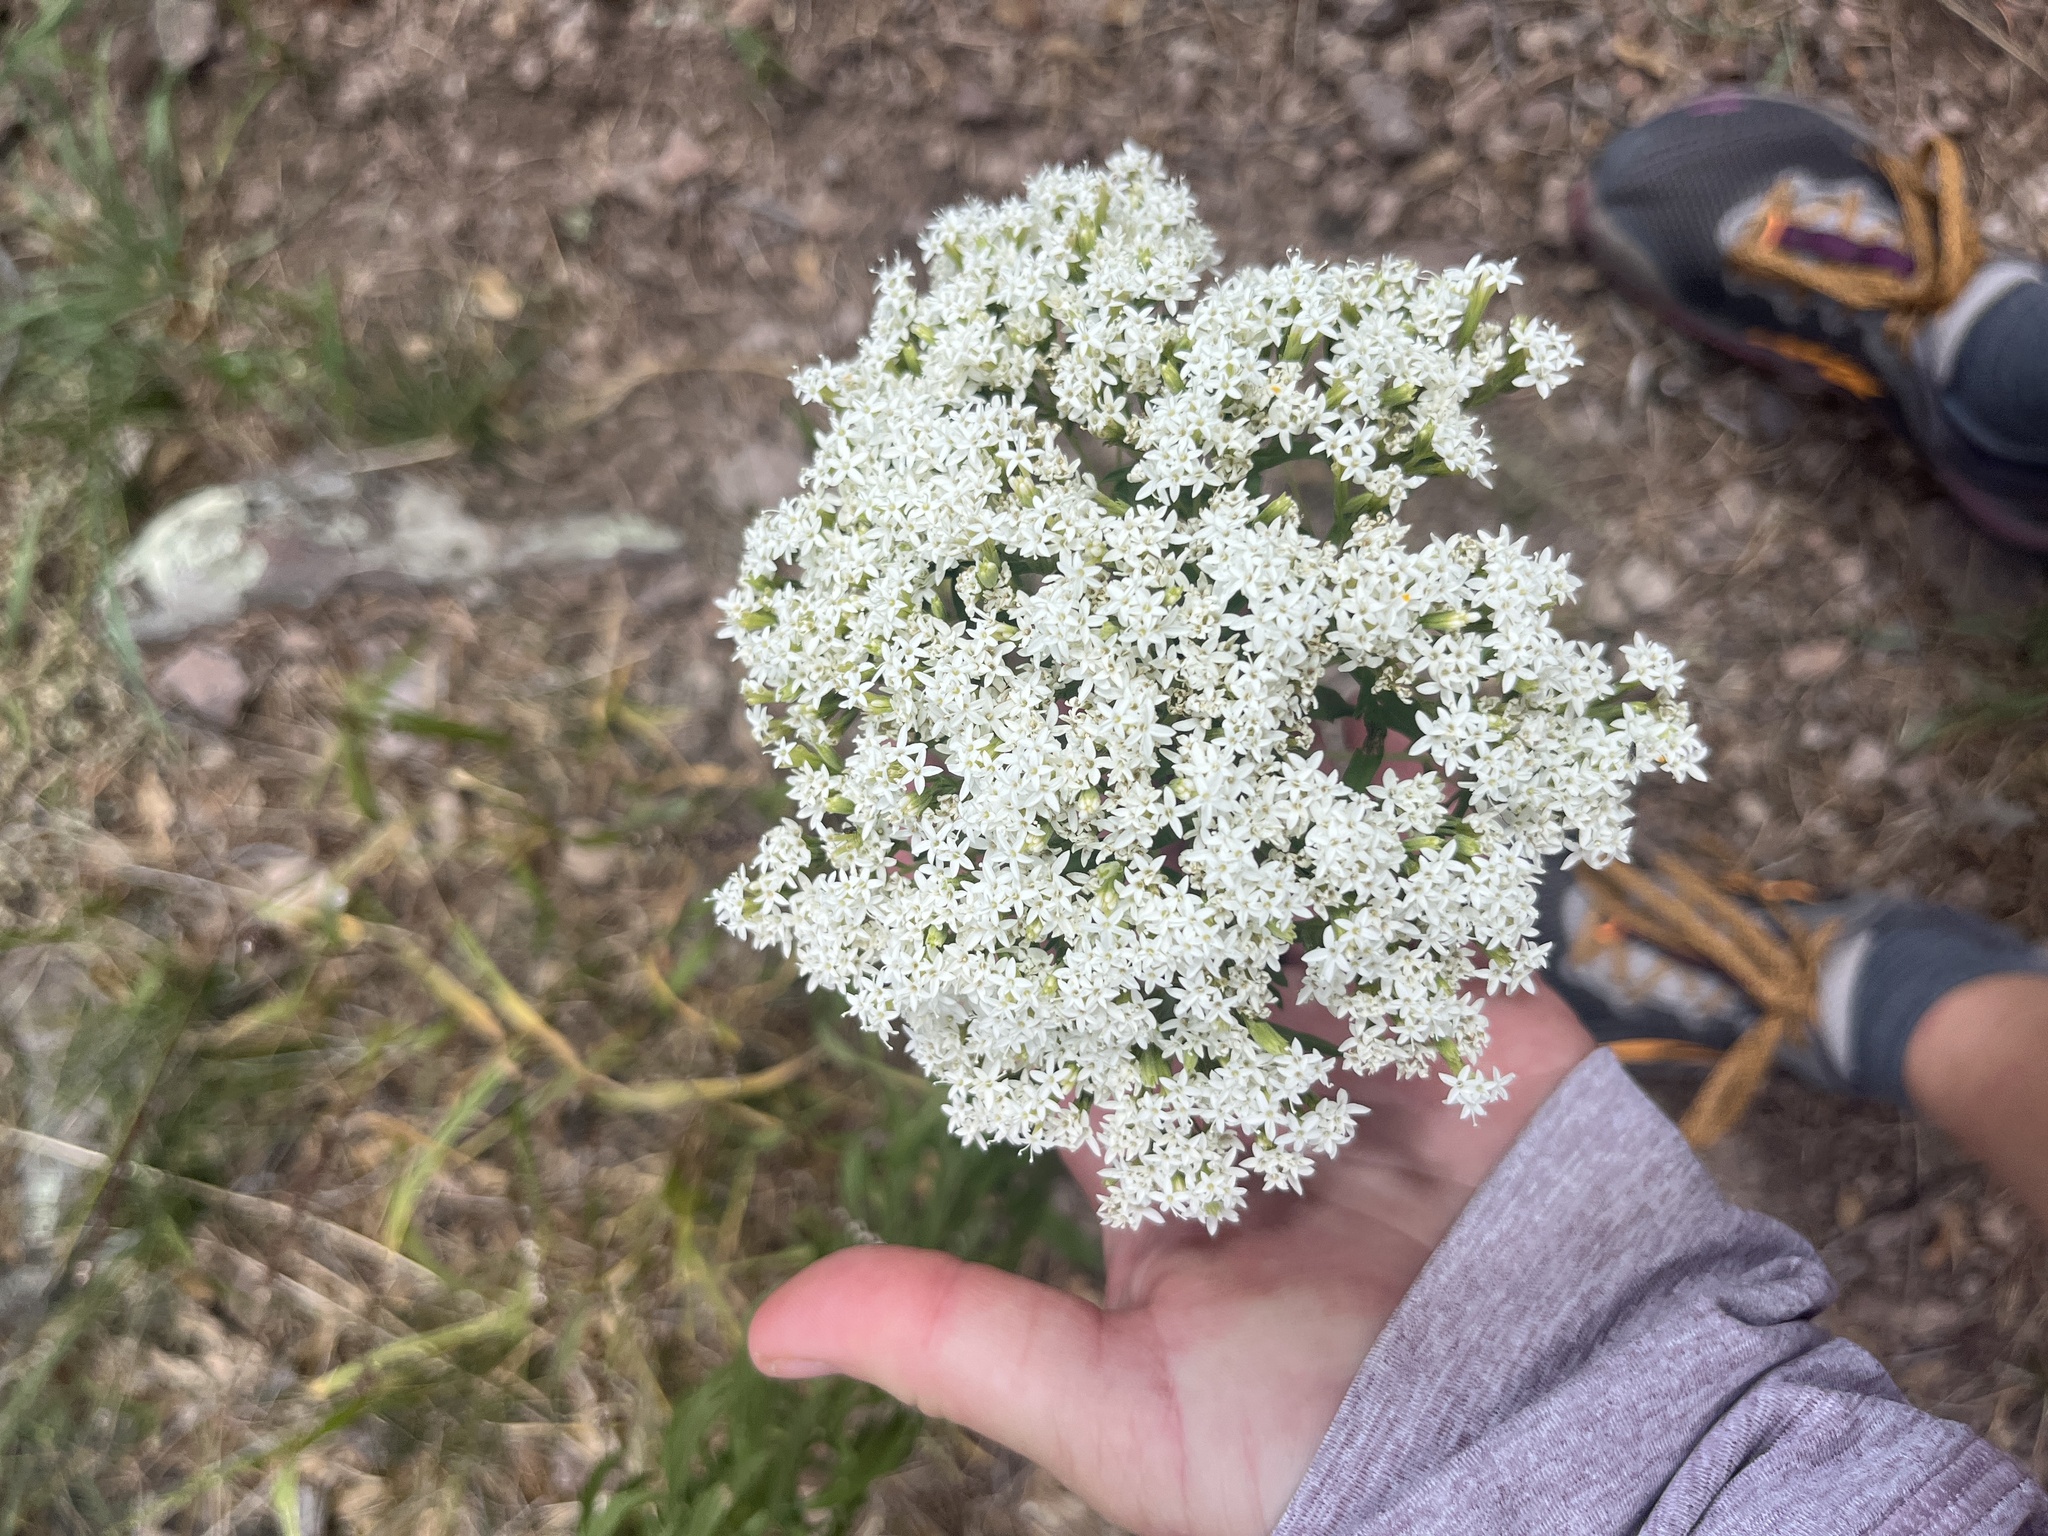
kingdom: Plantae
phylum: Tracheophyta
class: Magnoliopsida
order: Asterales
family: Asteraceae
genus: Stevia
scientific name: Stevia serrata
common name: Sawtooth candyleaf
